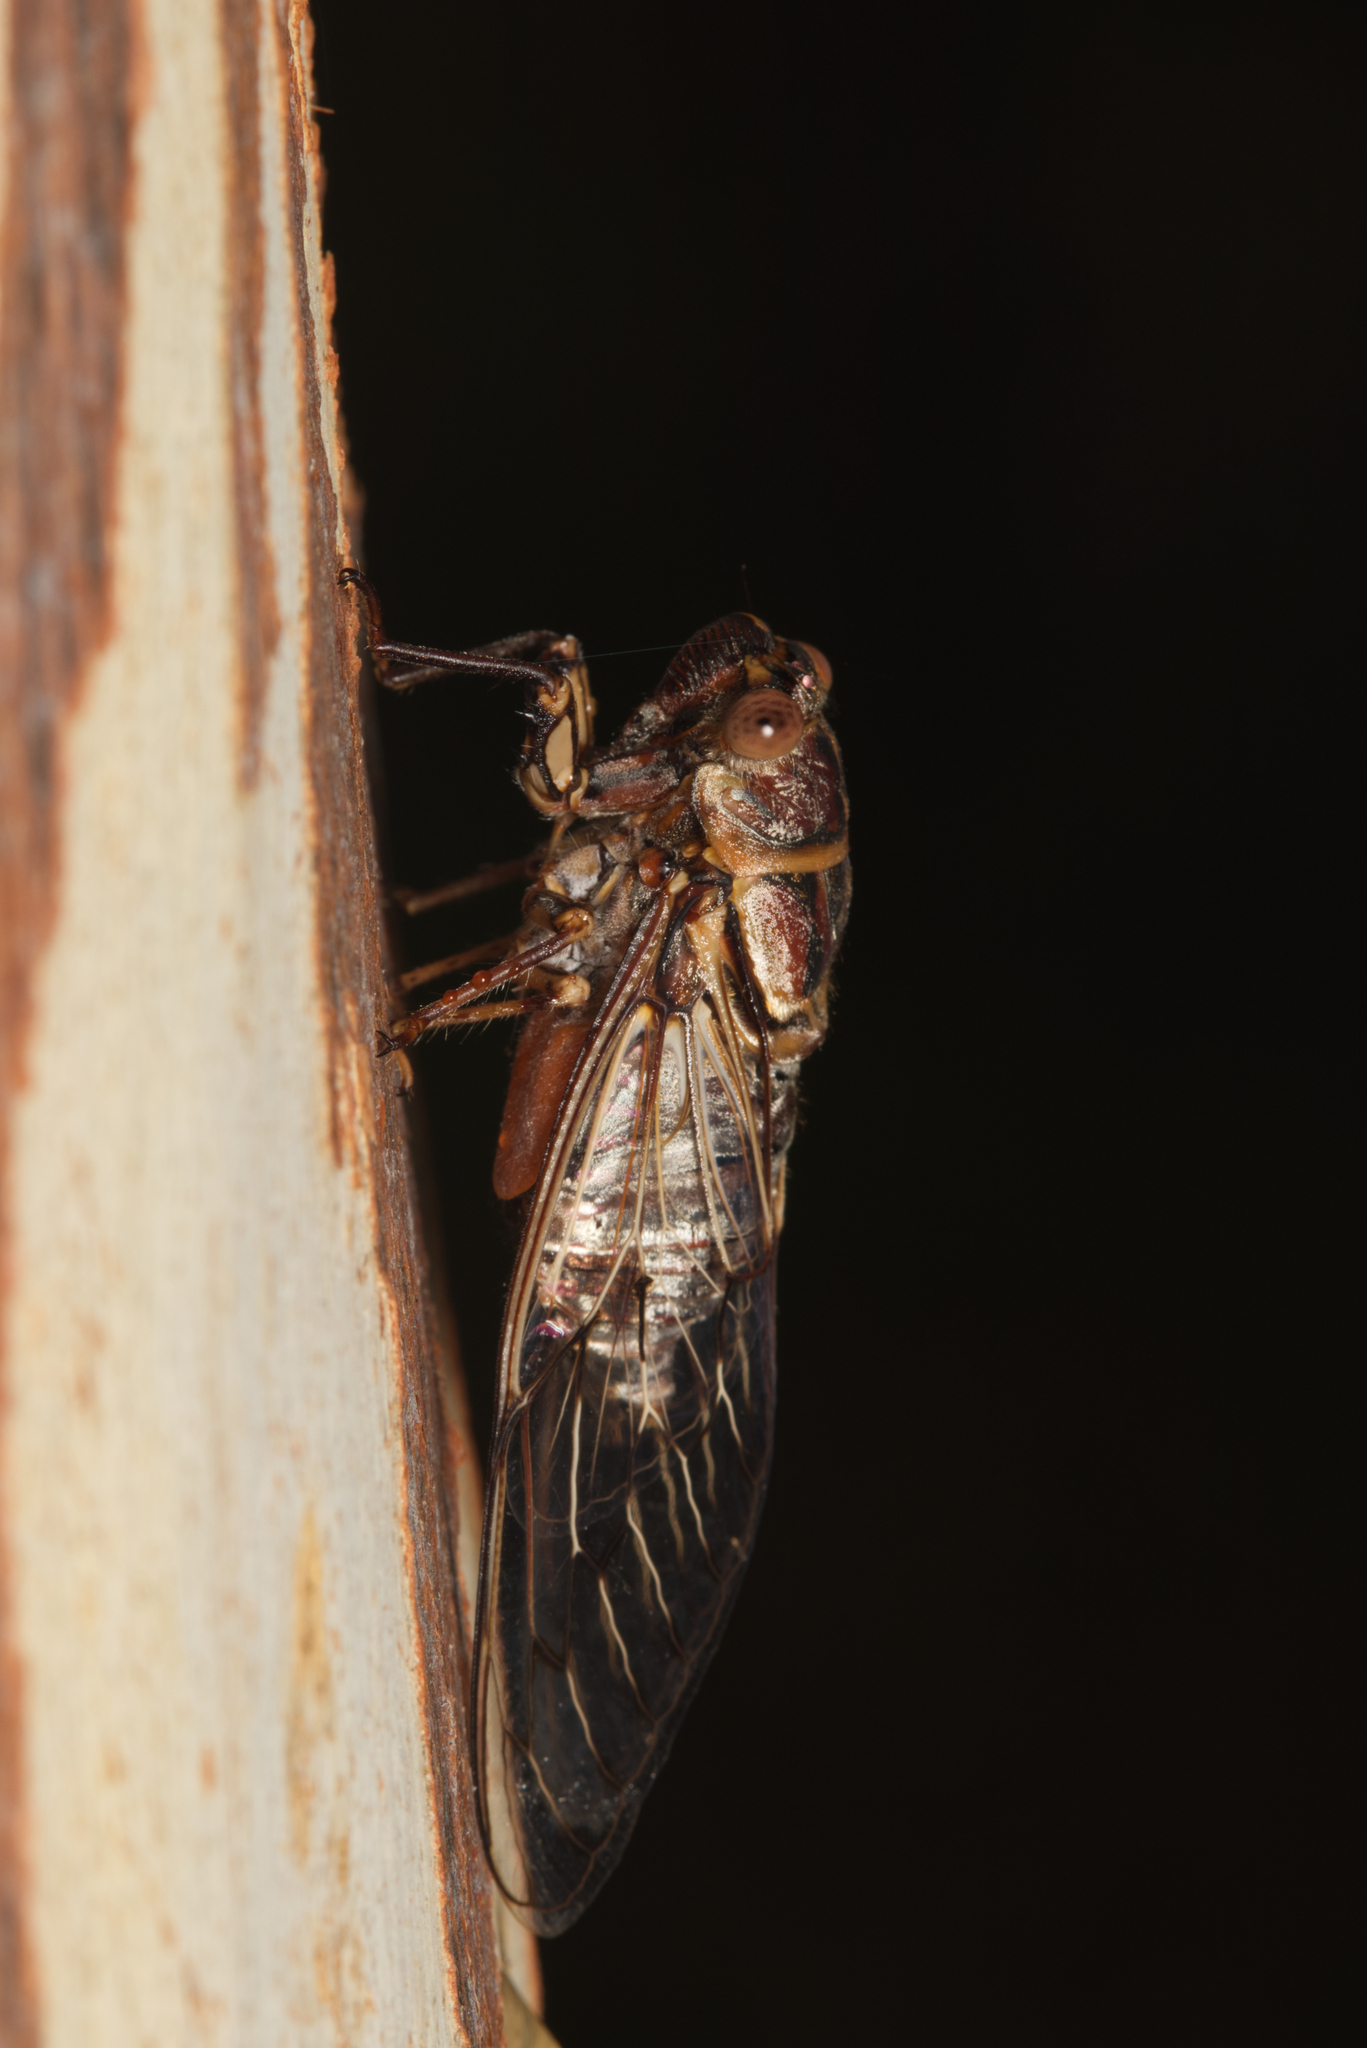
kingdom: Animalia
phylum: Arthropoda
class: Insecta
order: Hemiptera
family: Cicadidae
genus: Henicopsaltria
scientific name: Henicopsaltria eydouxii
